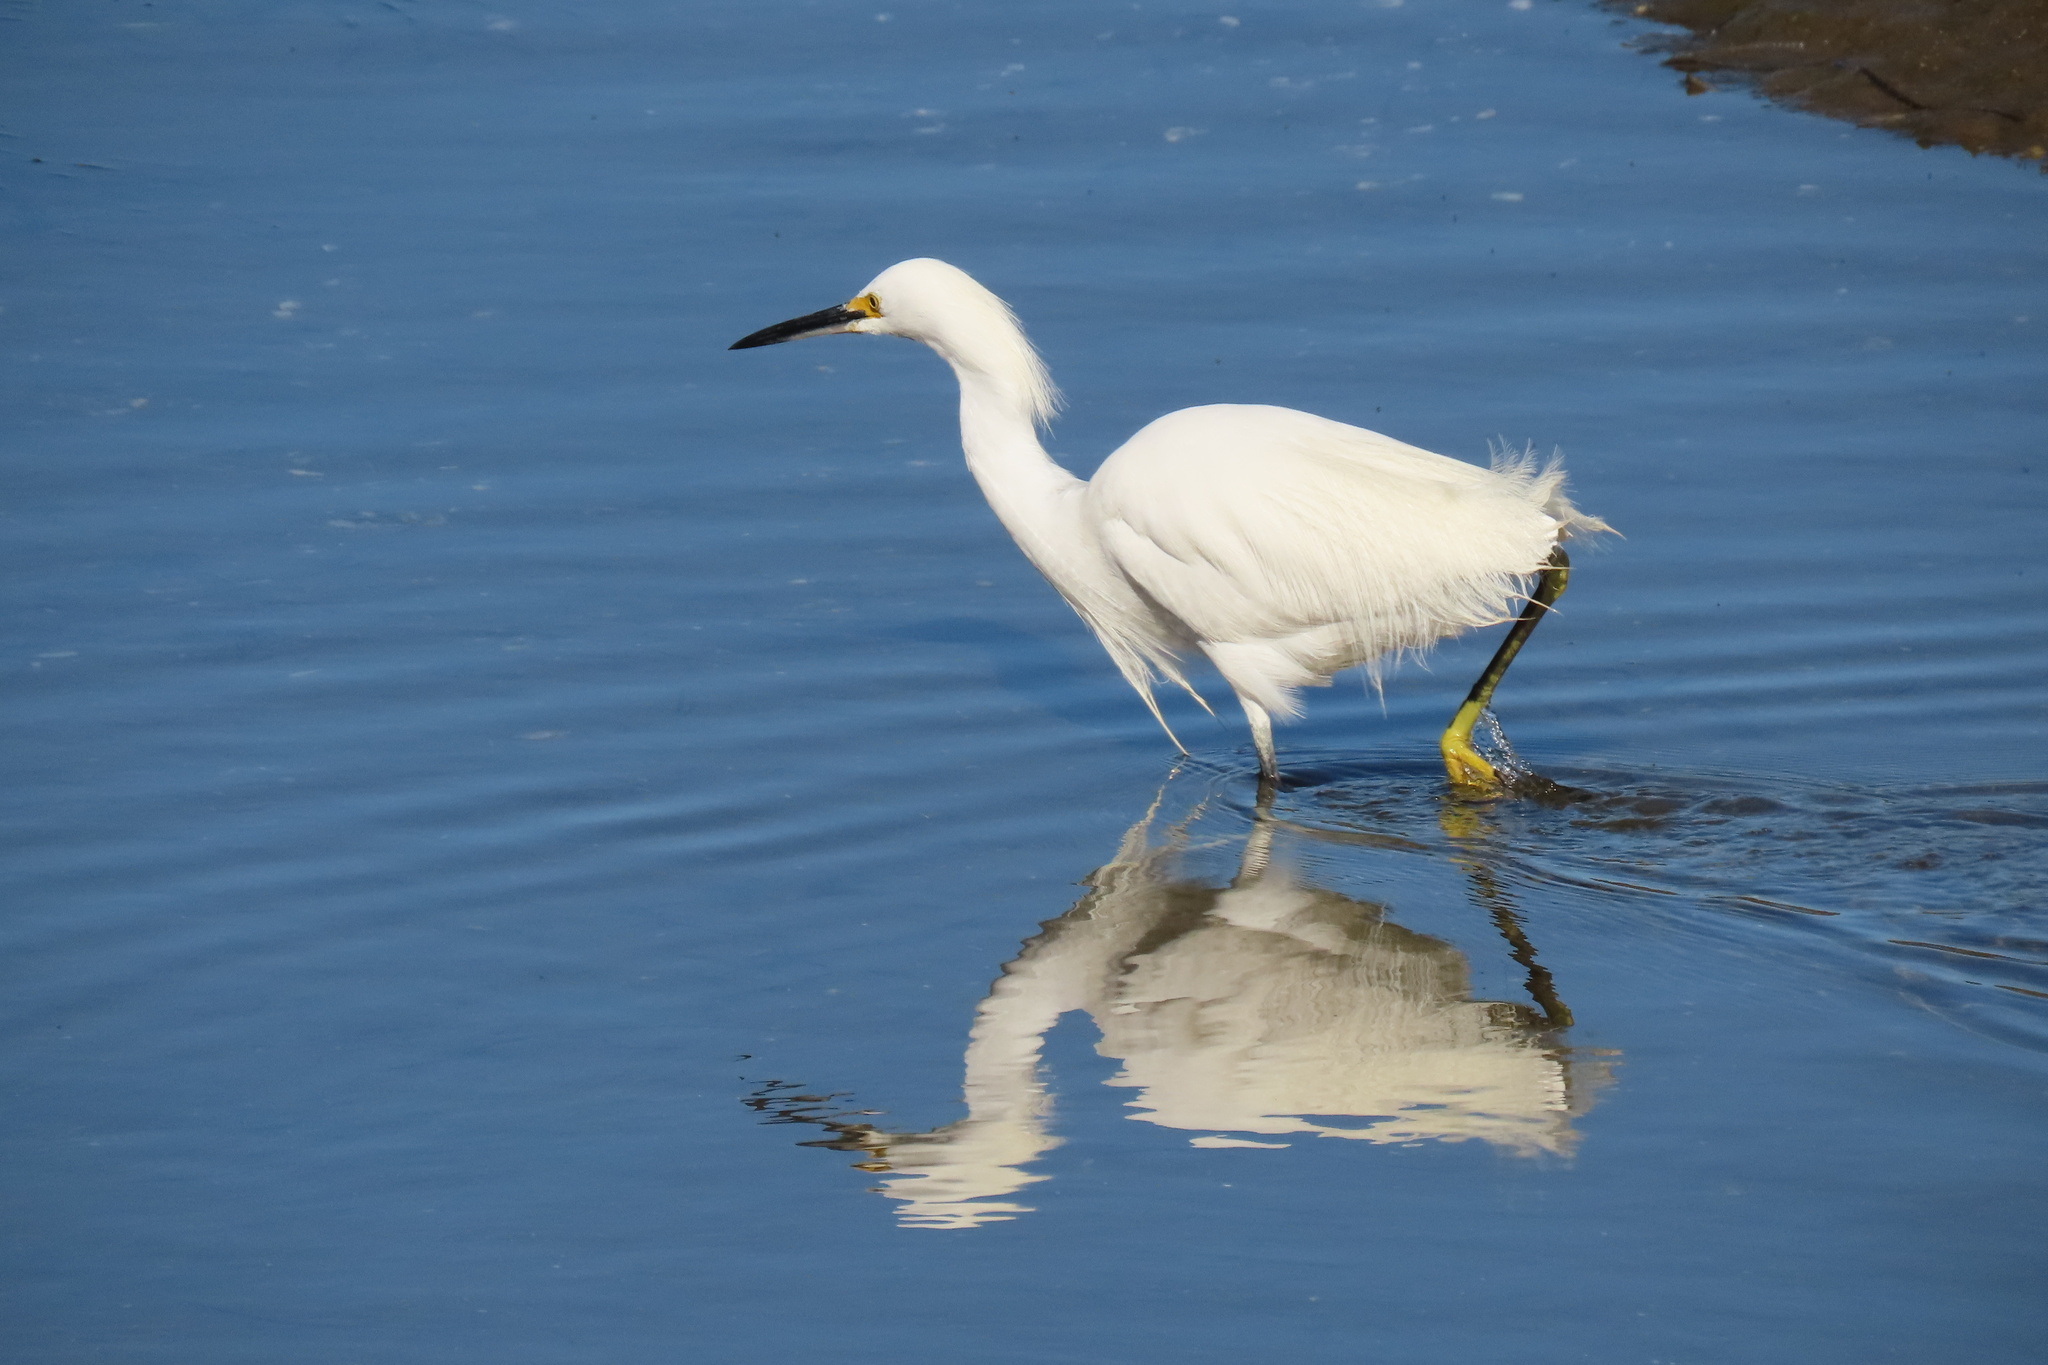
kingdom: Animalia
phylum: Chordata
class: Aves
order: Pelecaniformes
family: Ardeidae
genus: Egretta
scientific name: Egretta thula
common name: Snowy egret
